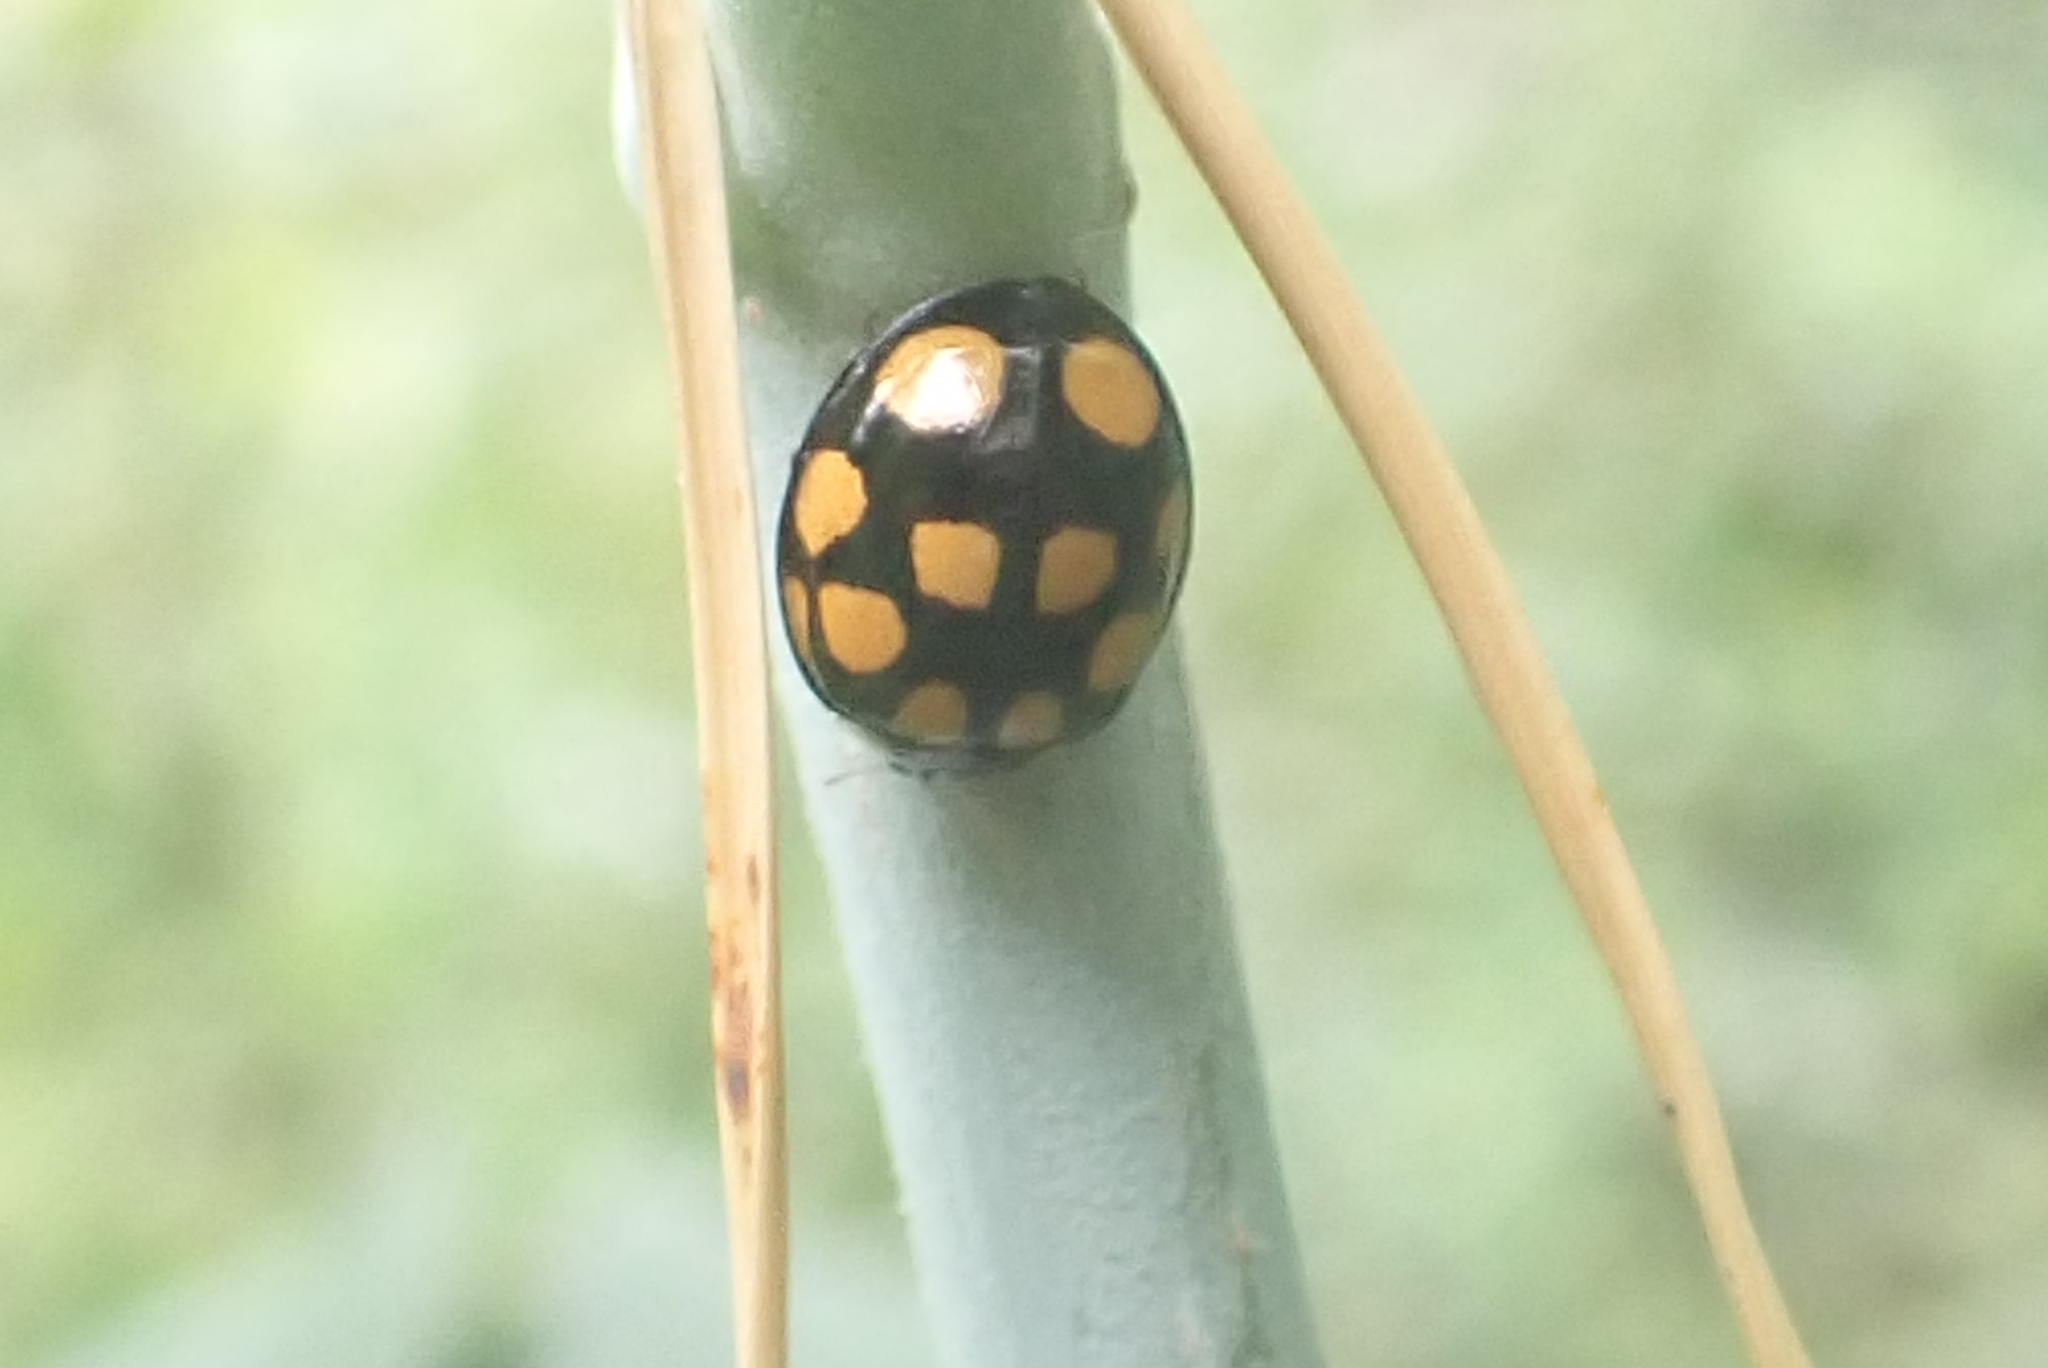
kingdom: Animalia
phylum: Arthropoda
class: Insecta
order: Coleoptera
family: Coccinellidae
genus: Harmonia
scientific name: Harmonia axyridis
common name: Harlequin ladybird
